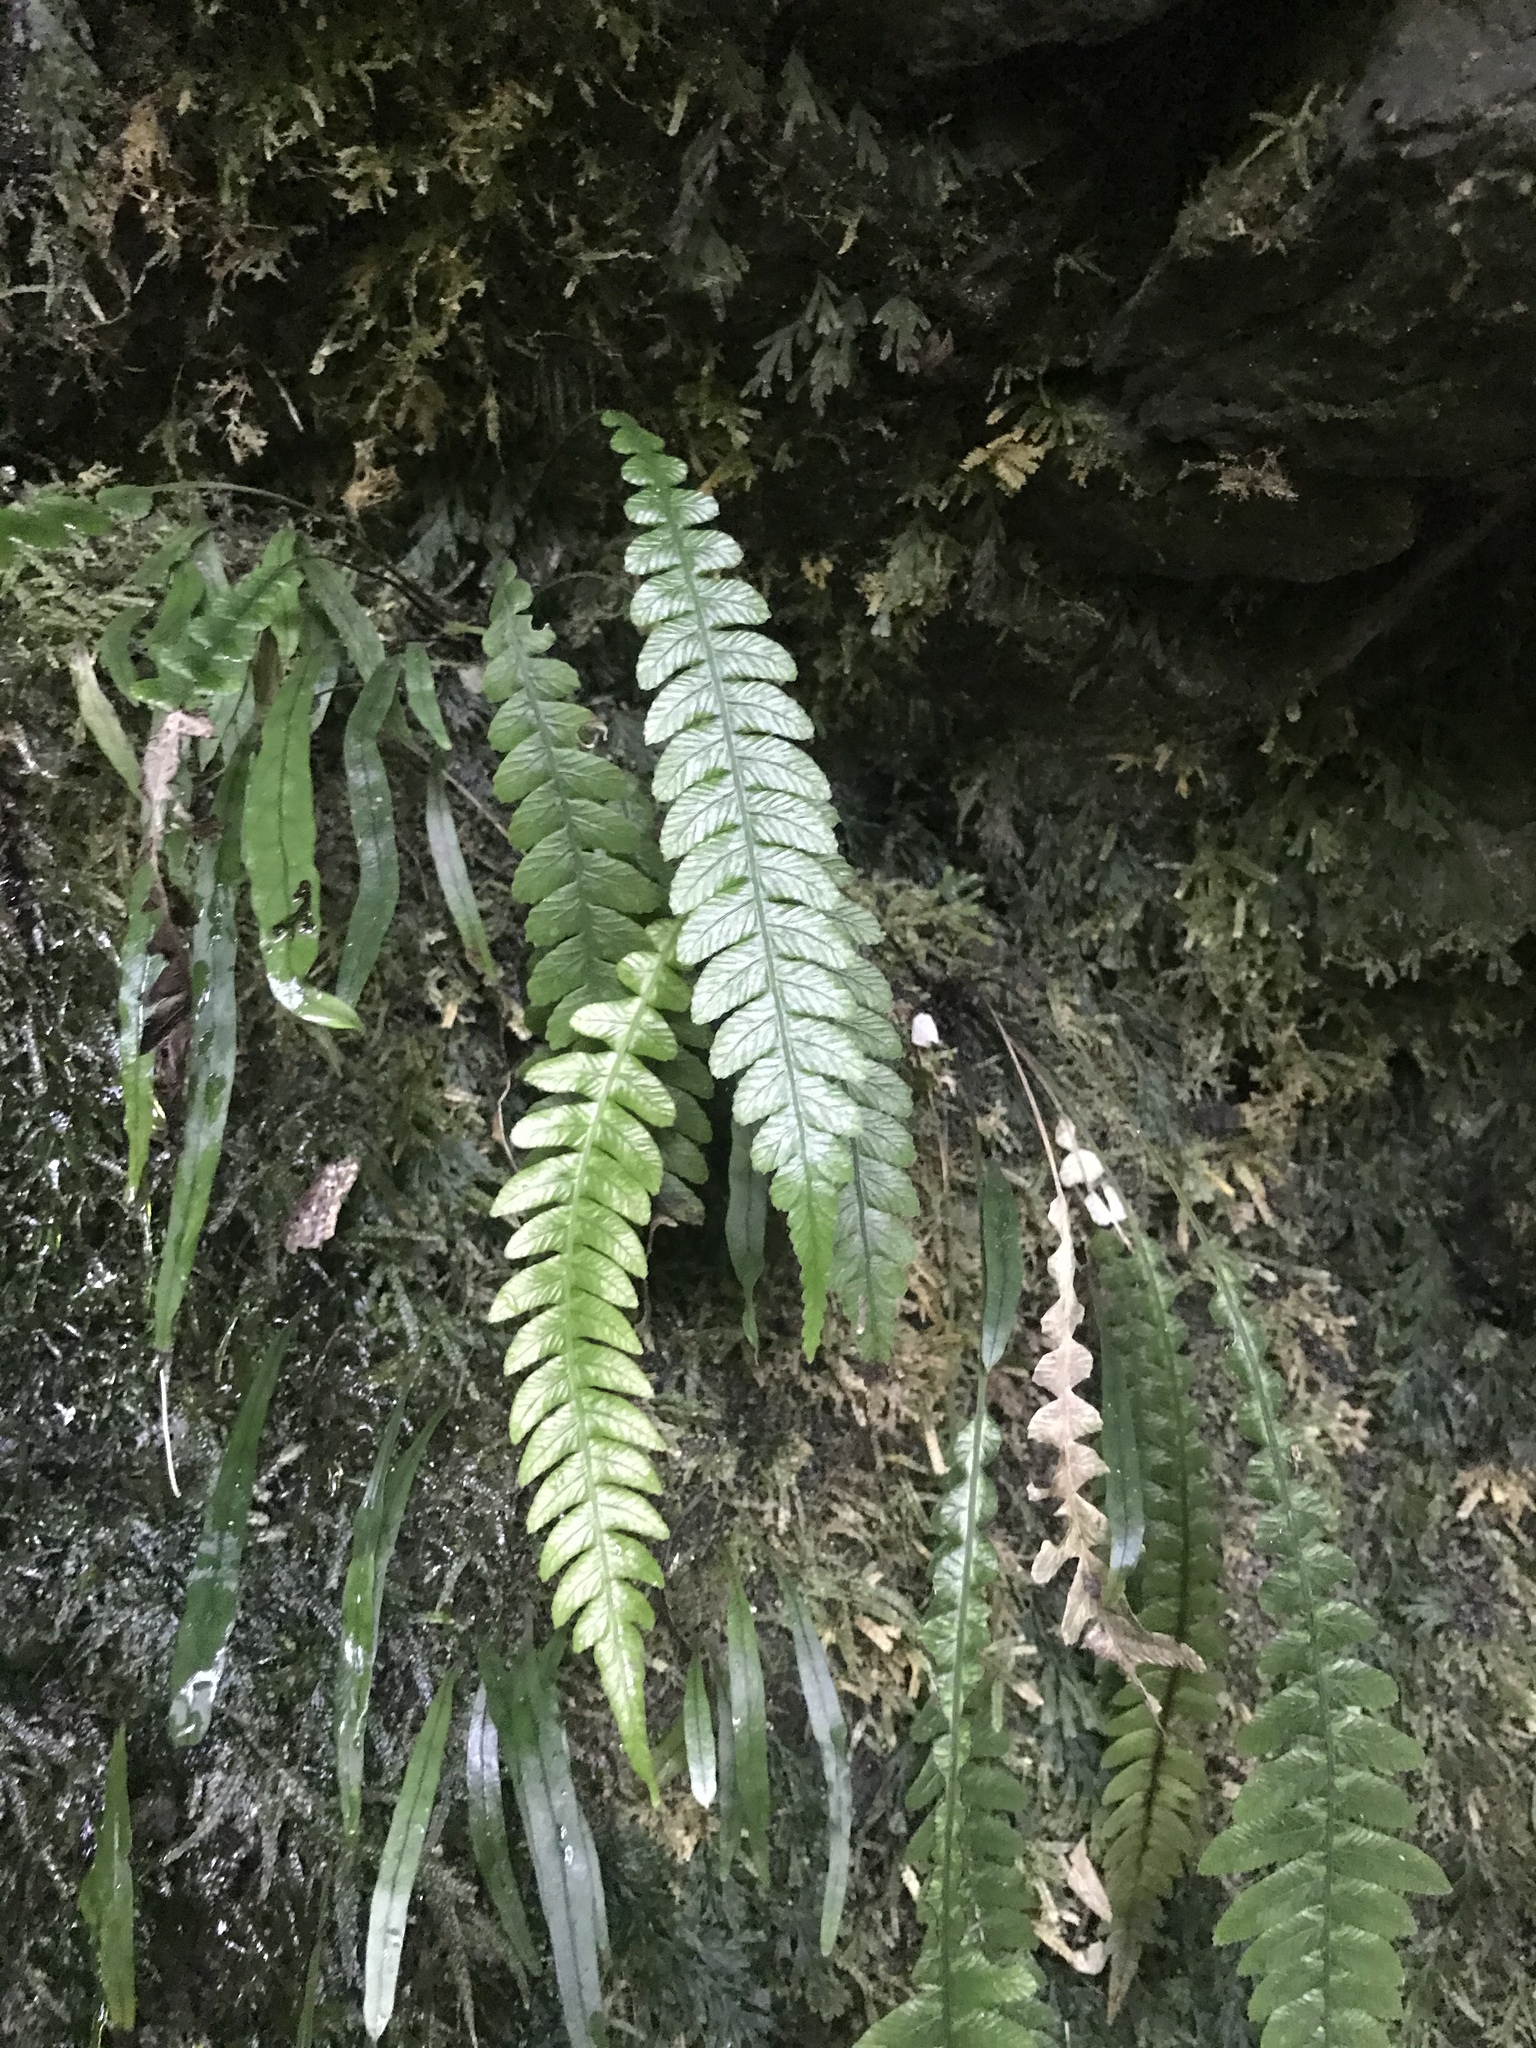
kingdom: Plantae
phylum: Tracheophyta
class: Polypodiopsida
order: Polypodiales
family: Blechnaceae
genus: Austroblechnum
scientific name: Austroblechnum lanceolatum
